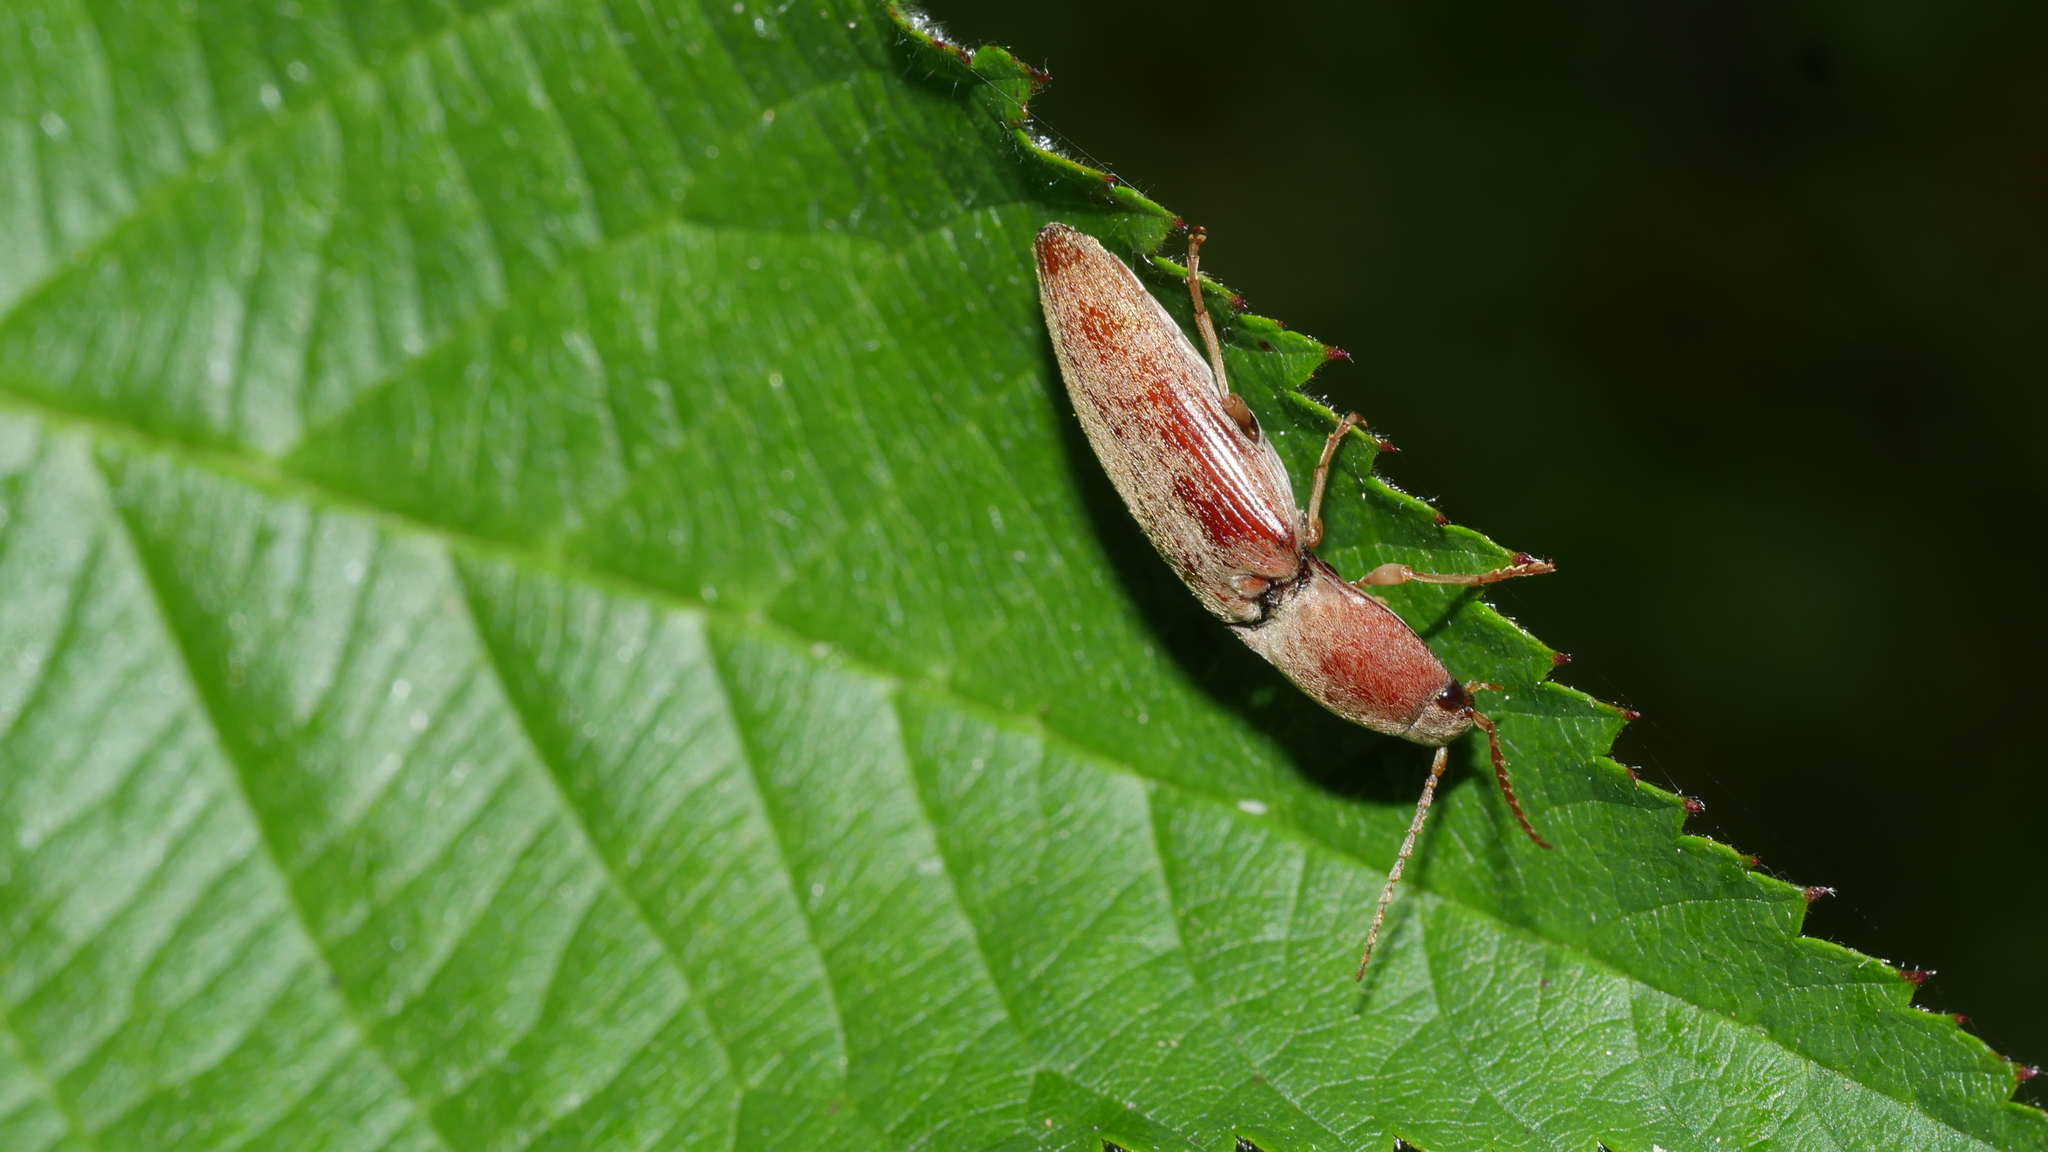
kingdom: Animalia
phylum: Arthropoda
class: Insecta
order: Coleoptera
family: Elateridae
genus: Monocrepidius
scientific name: Monocrepidius lividus
